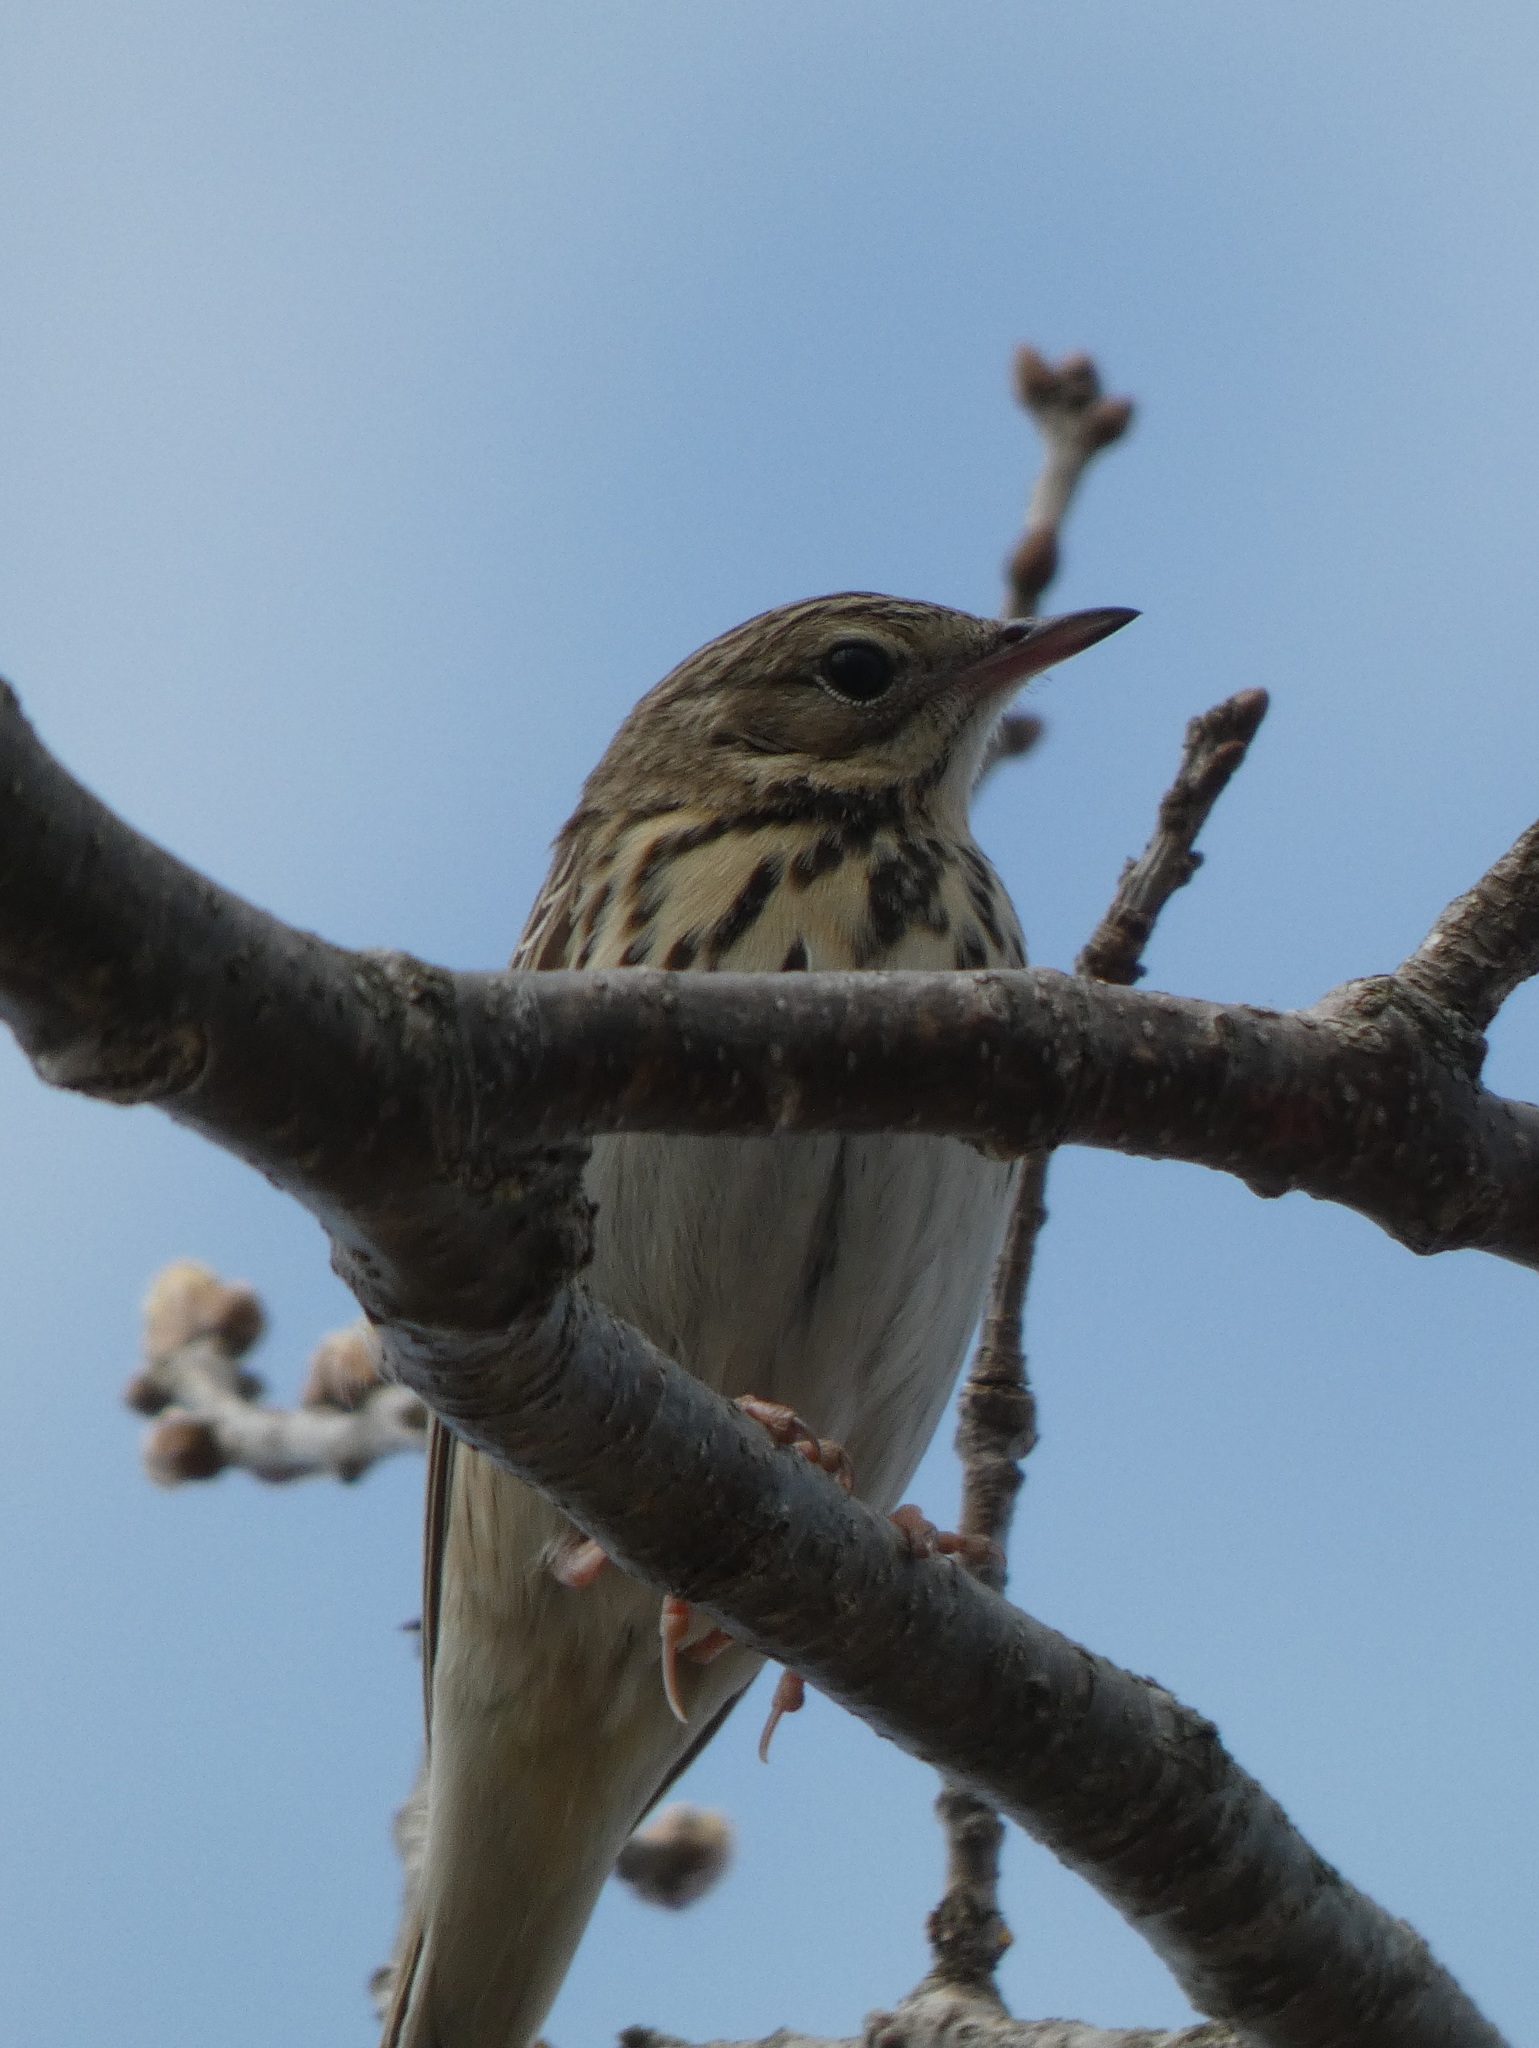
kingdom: Animalia
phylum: Chordata
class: Aves
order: Passeriformes
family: Motacillidae
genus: Anthus
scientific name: Anthus trivialis
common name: Tree pipit
